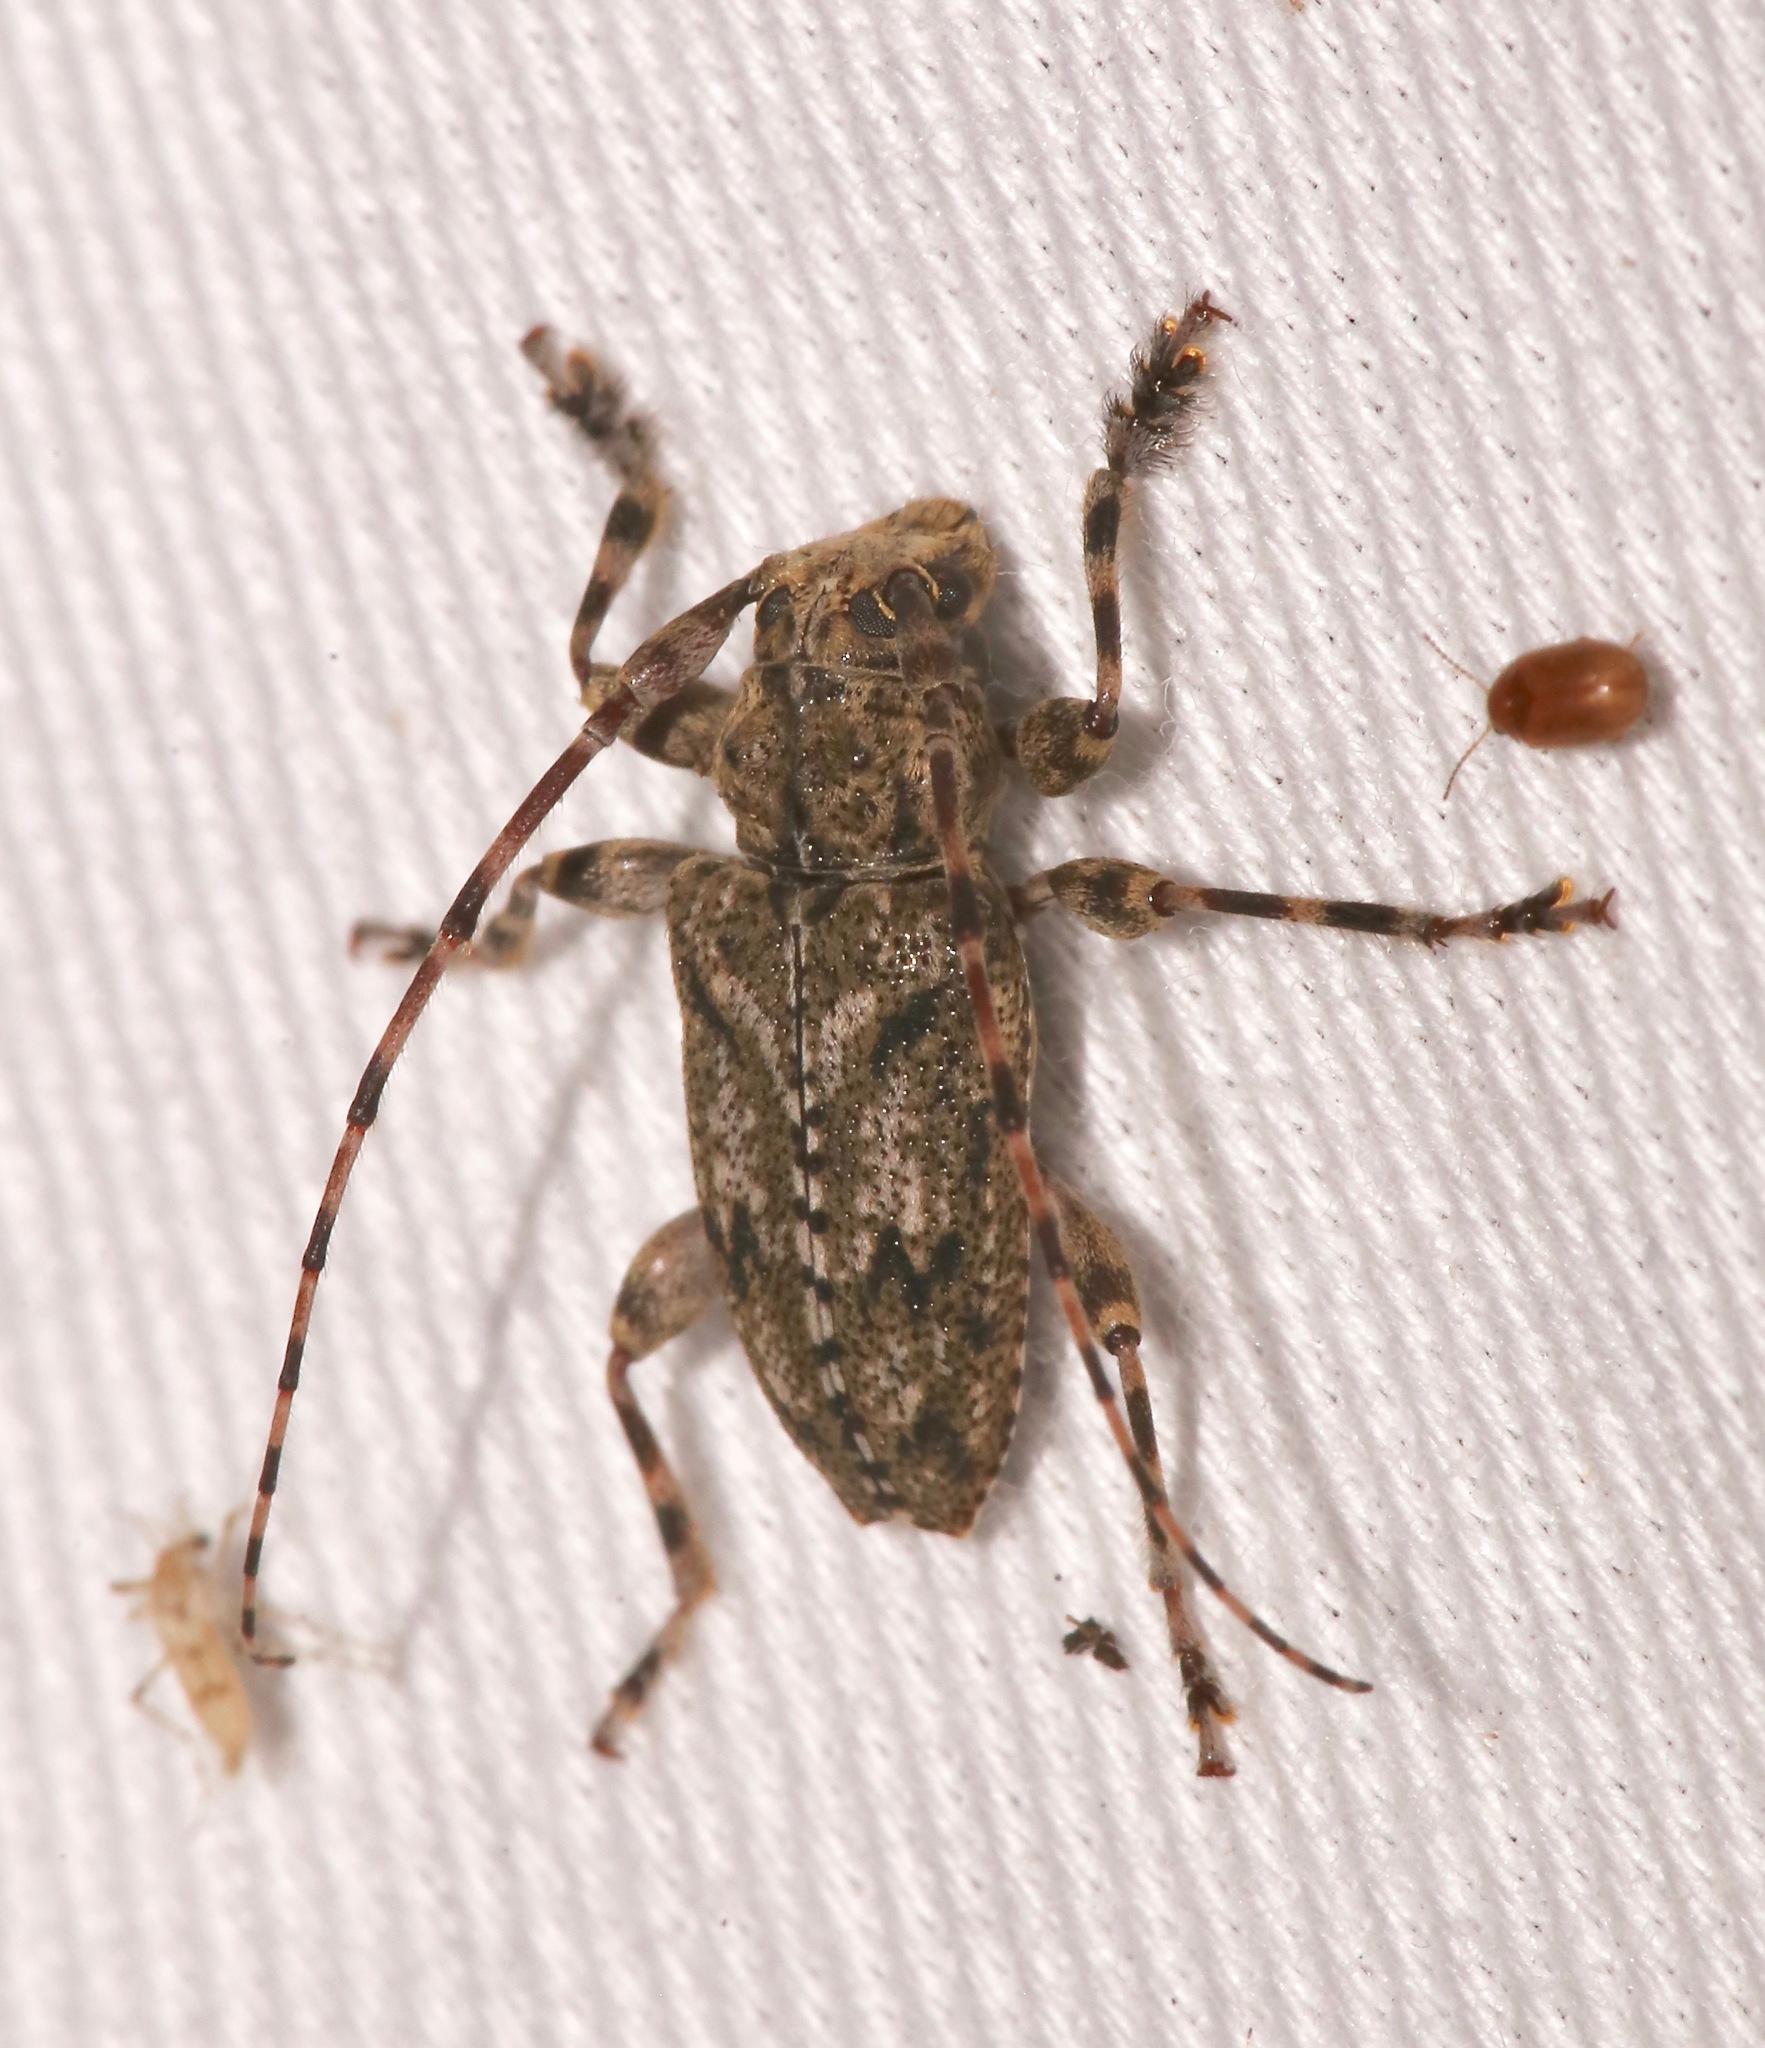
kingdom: Animalia
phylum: Arthropoda
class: Insecta
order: Coleoptera
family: Cerambycidae
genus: Aegomorphus
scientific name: Aegomorphus modestus
